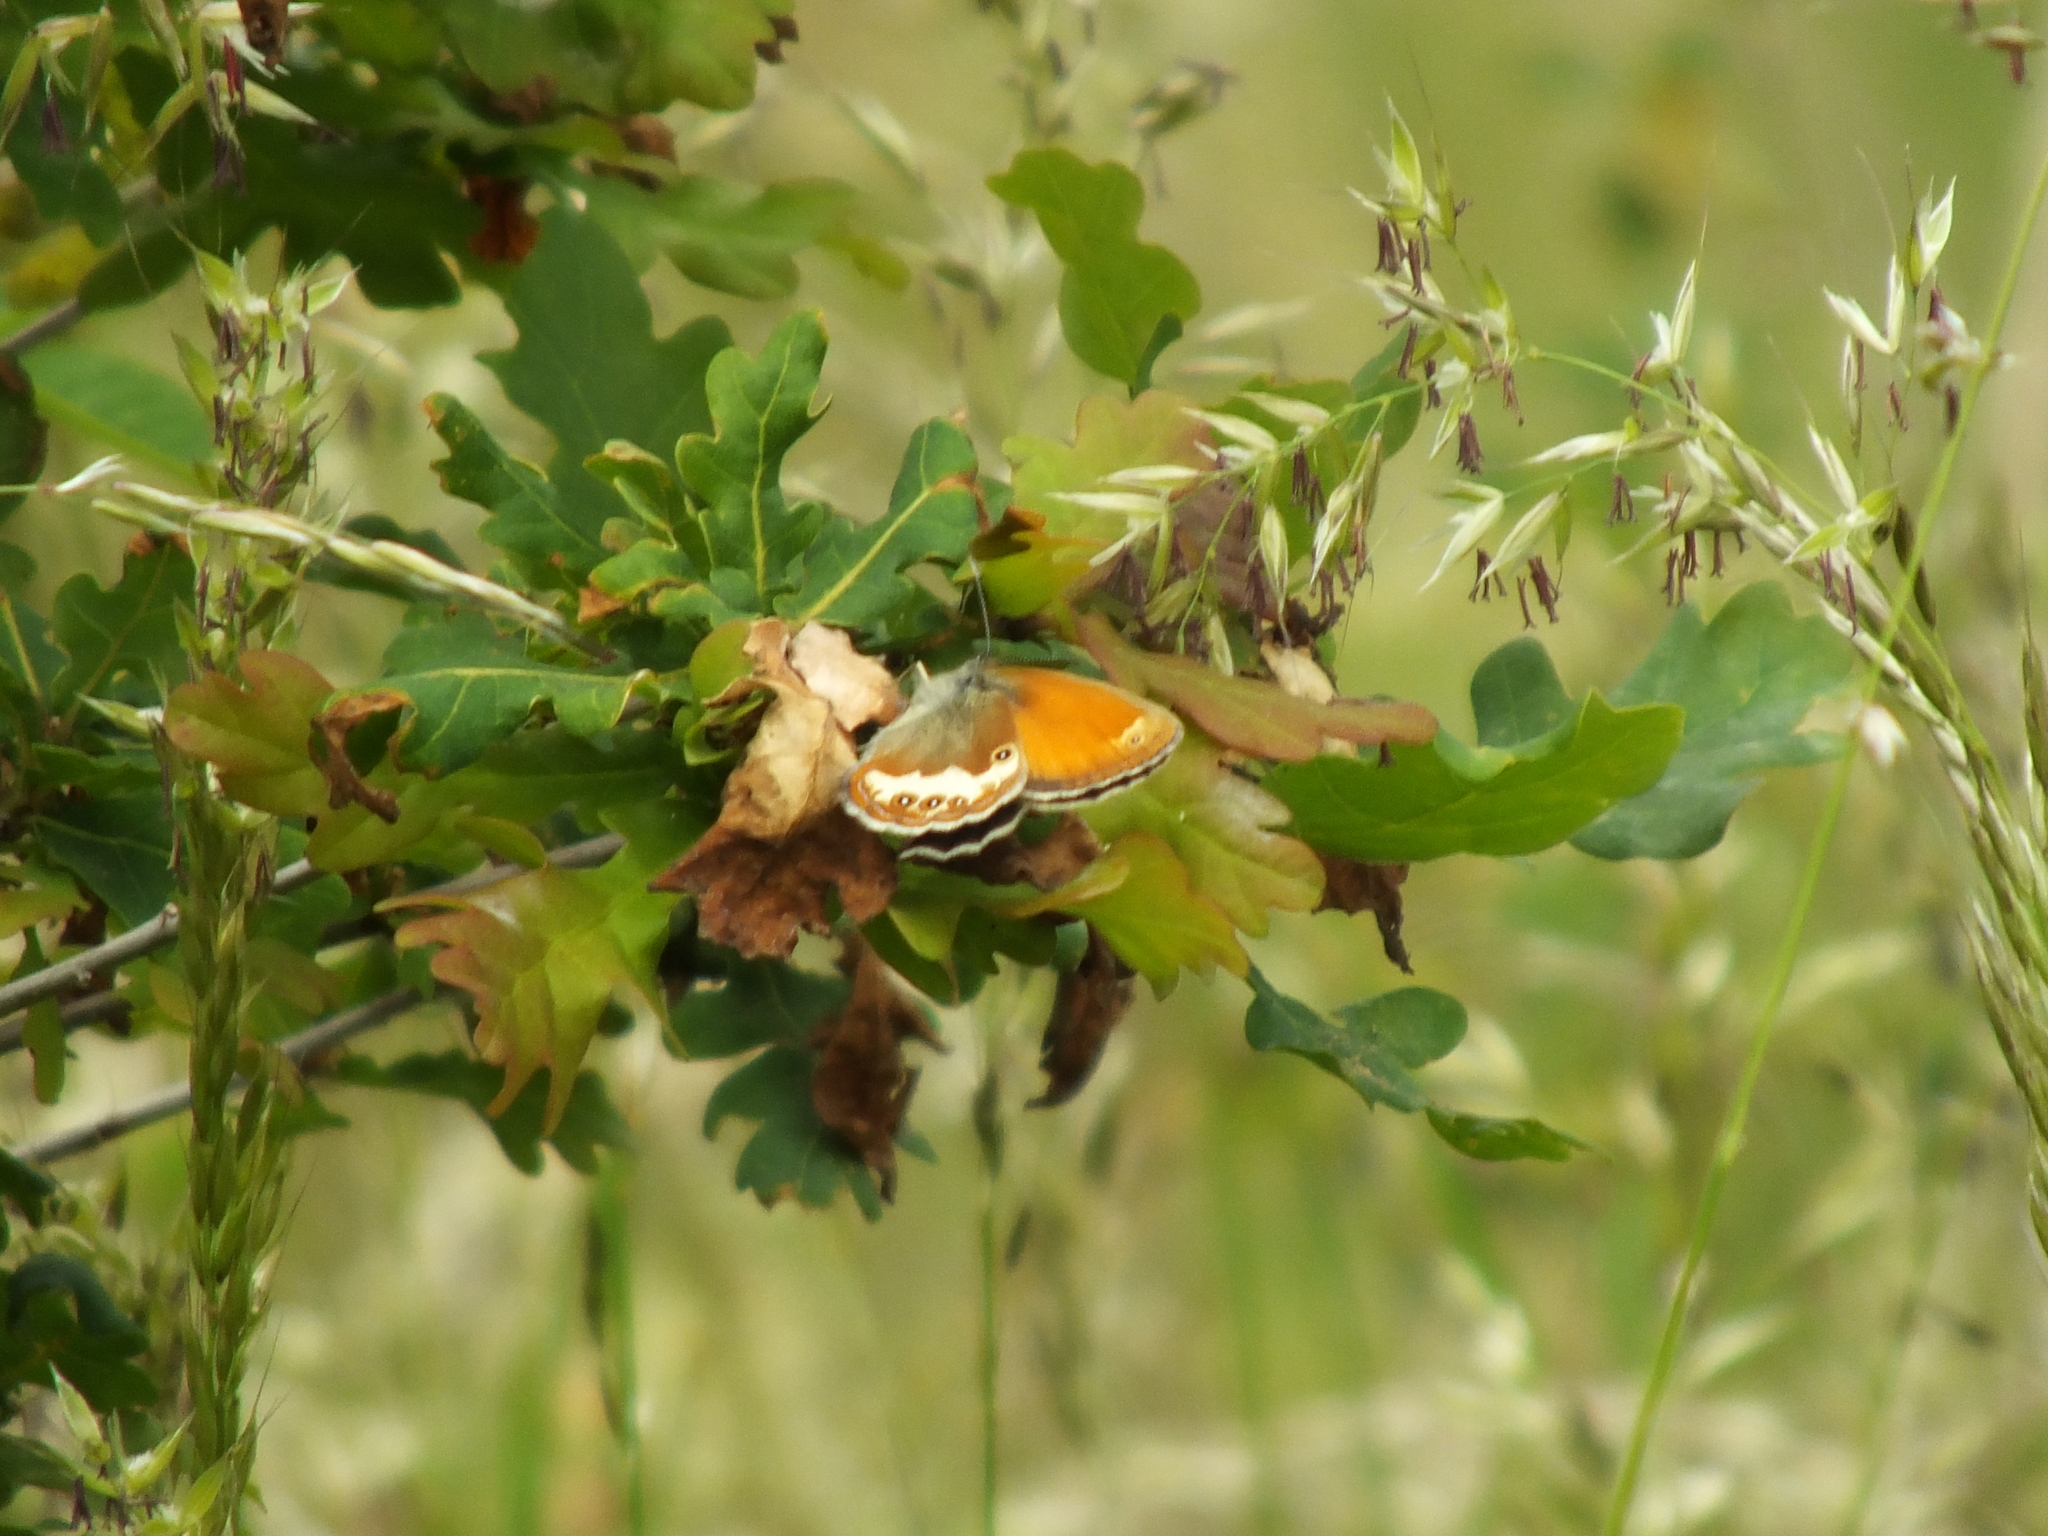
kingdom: Animalia
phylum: Arthropoda
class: Insecta
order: Lepidoptera
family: Nymphalidae
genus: Coenonympha
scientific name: Coenonympha arcania
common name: Pearly heath
